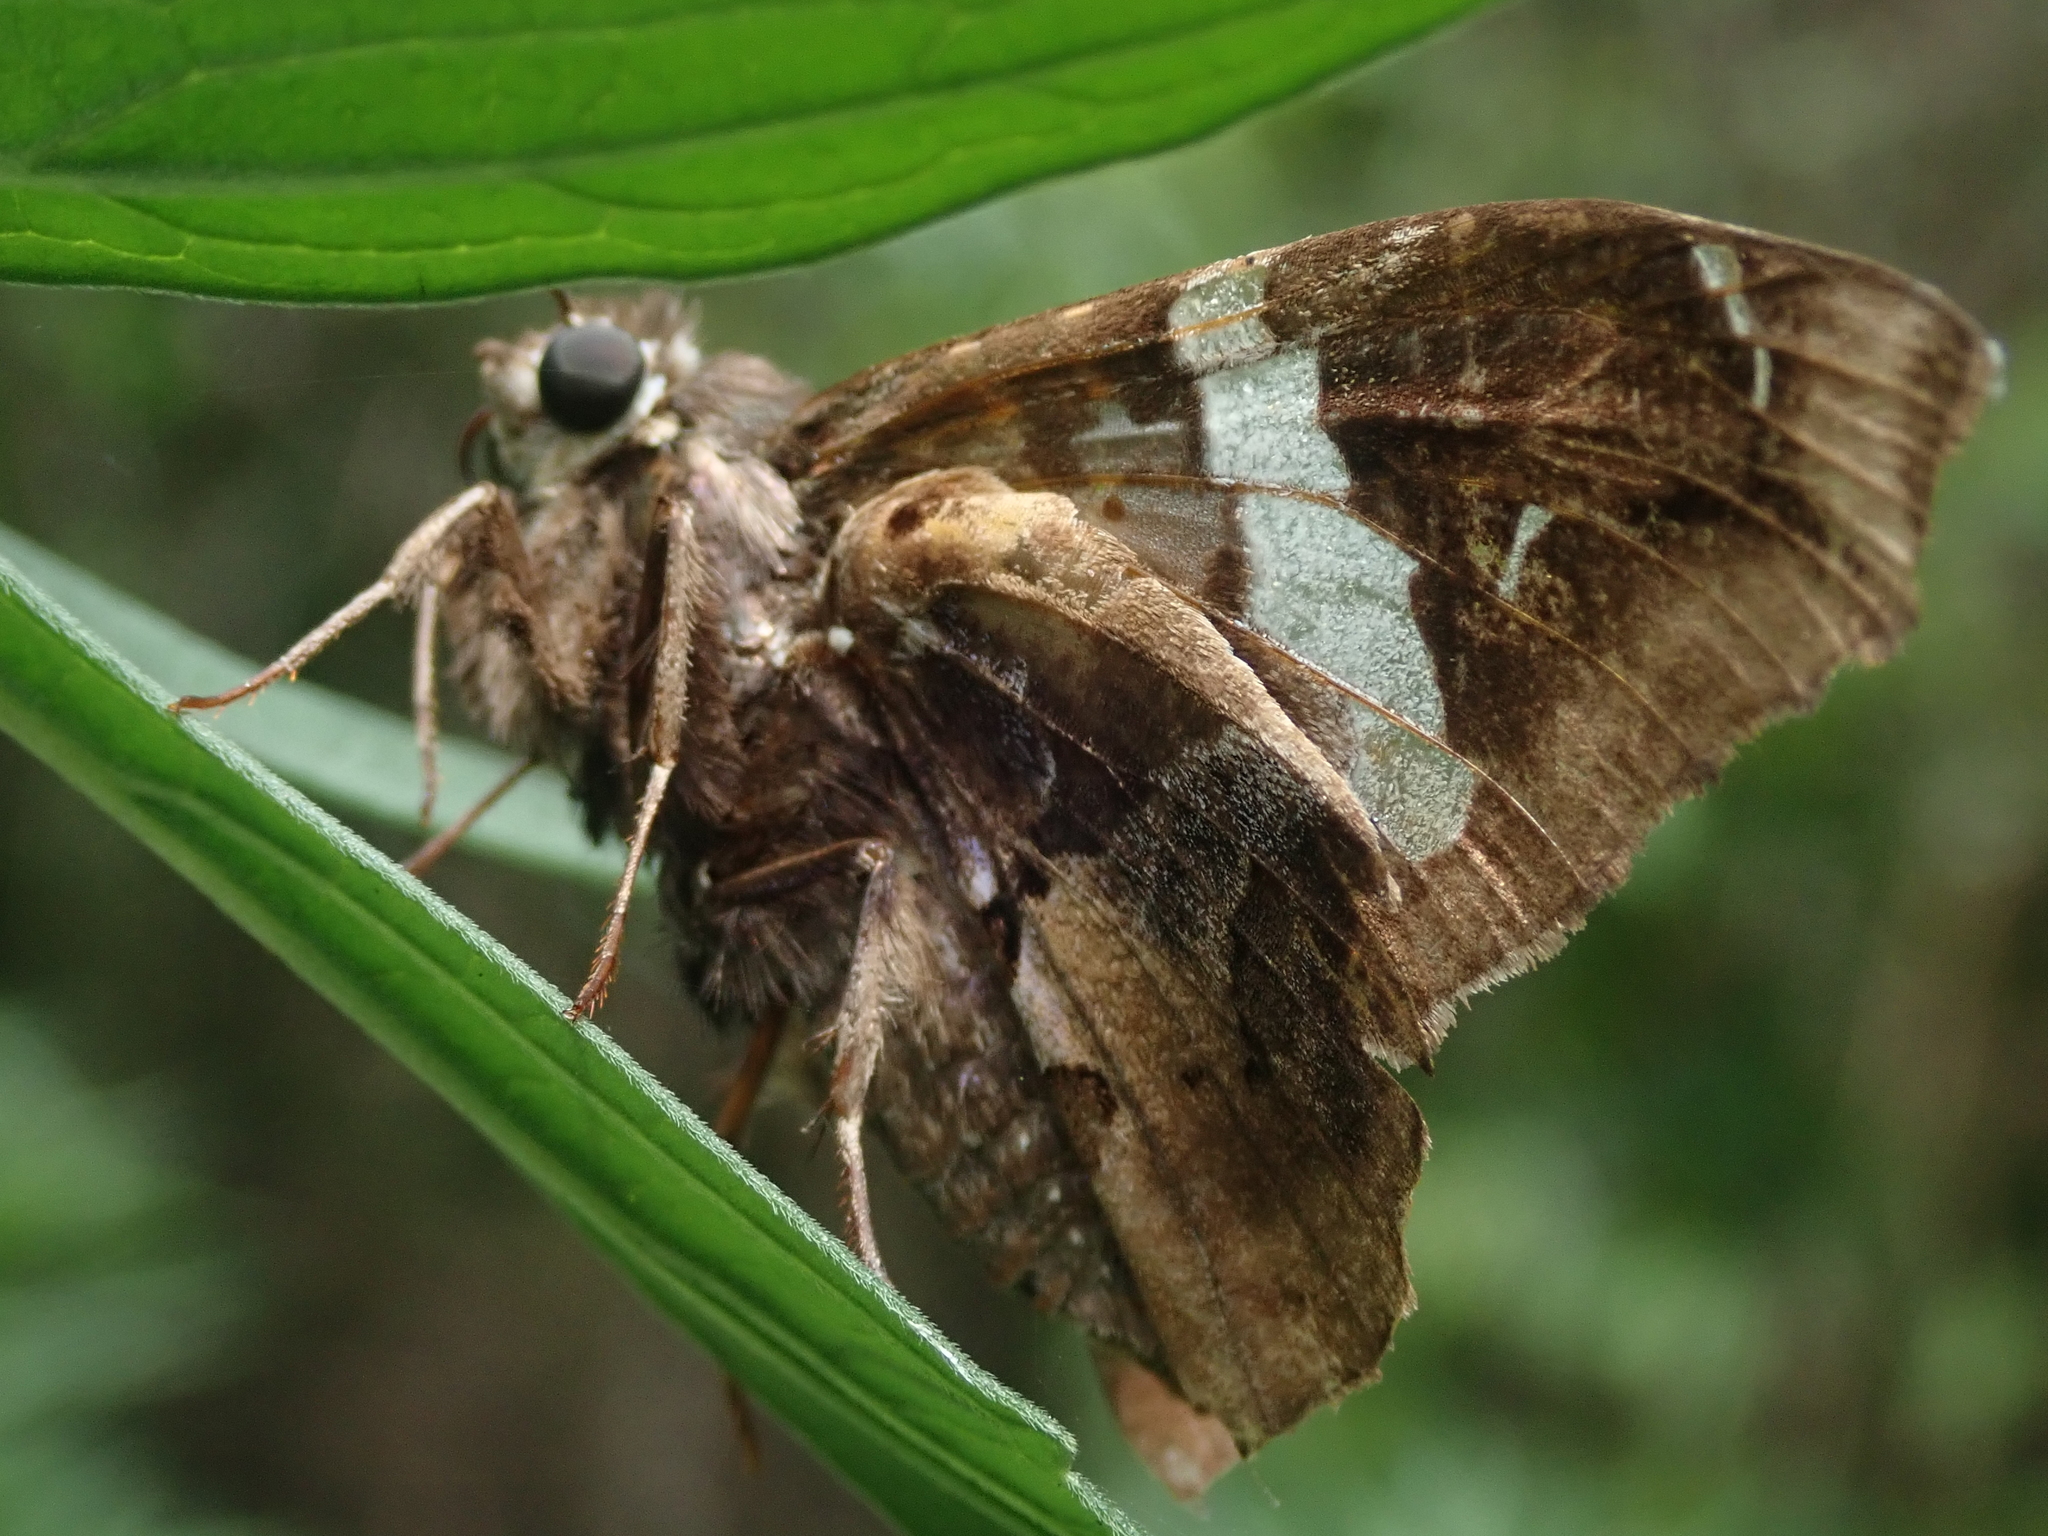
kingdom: Animalia
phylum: Arthropoda
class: Insecta
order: Lepidoptera
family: Hesperiidae
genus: Spathilepia
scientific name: Spathilepia clonius
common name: Falcate skipper
